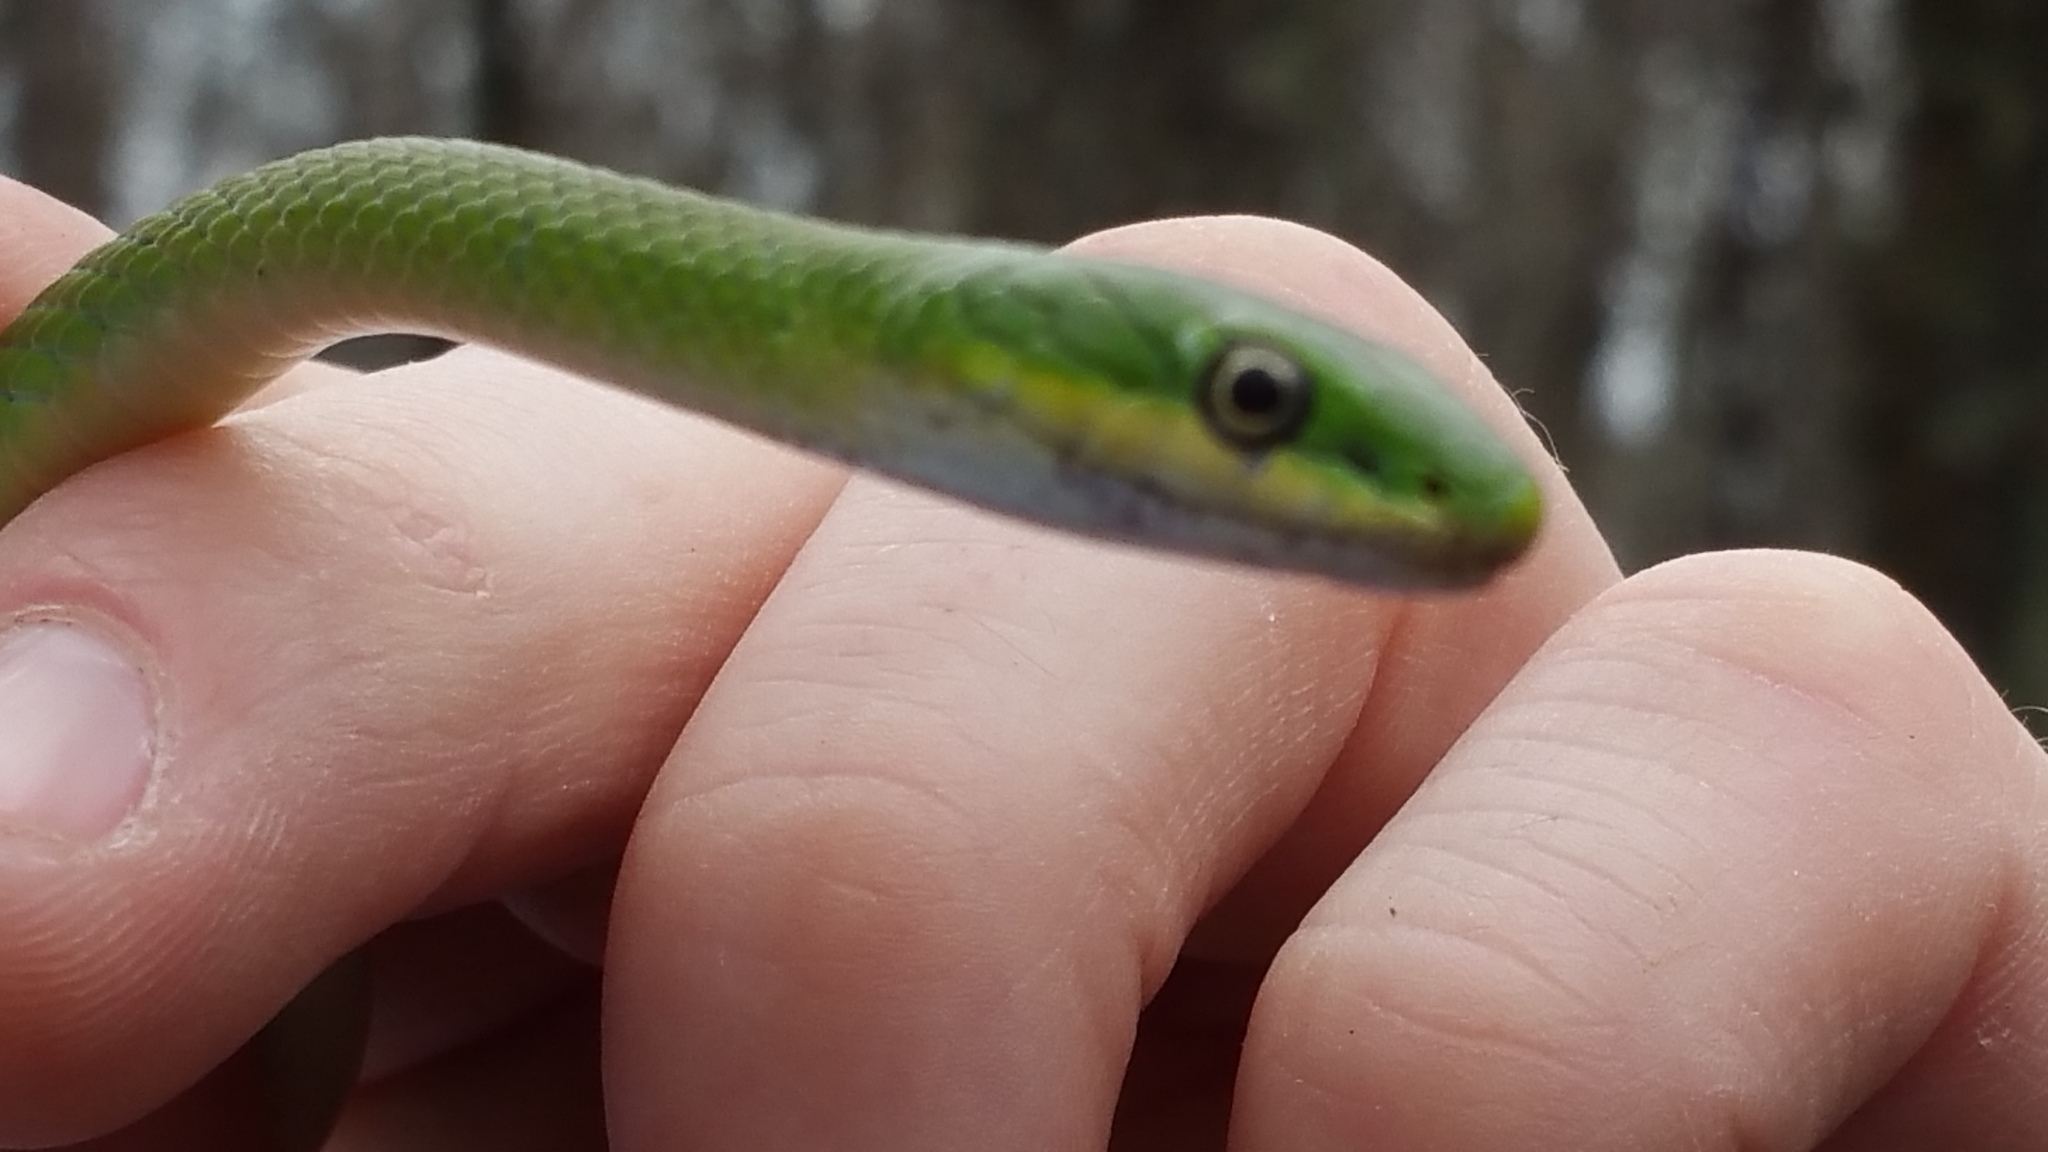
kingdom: Animalia
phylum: Chordata
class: Squamata
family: Colubridae
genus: Opheodrys
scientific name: Opheodrys aestivus
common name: Rough greensnake
